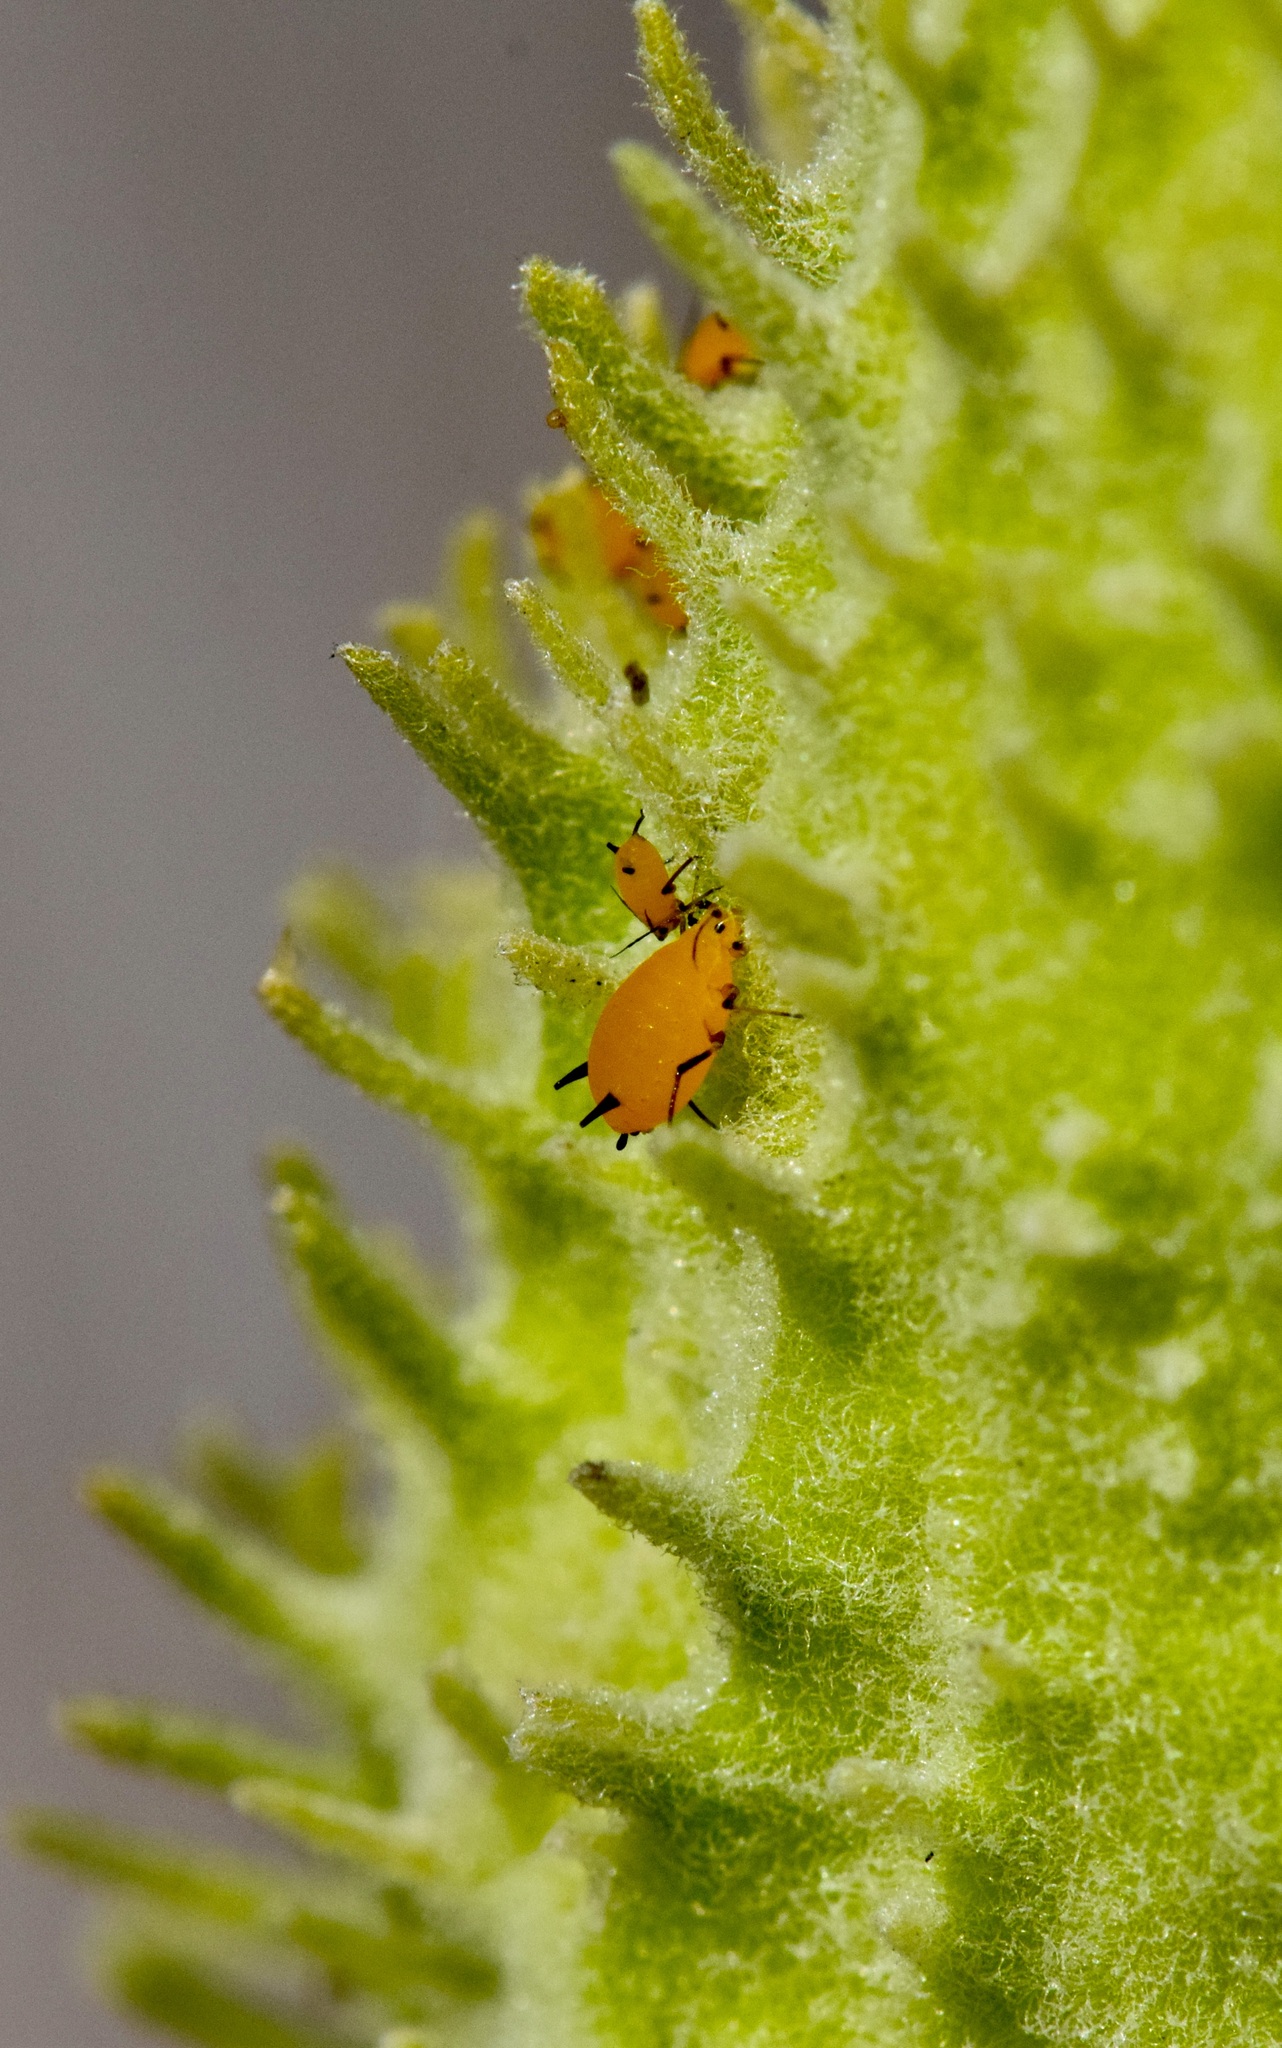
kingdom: Animalia
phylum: Arthropoda
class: Insecta
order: Hemiptera
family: Aphididae
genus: Aphis
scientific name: Aphis nerii
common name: Oleander aphid
